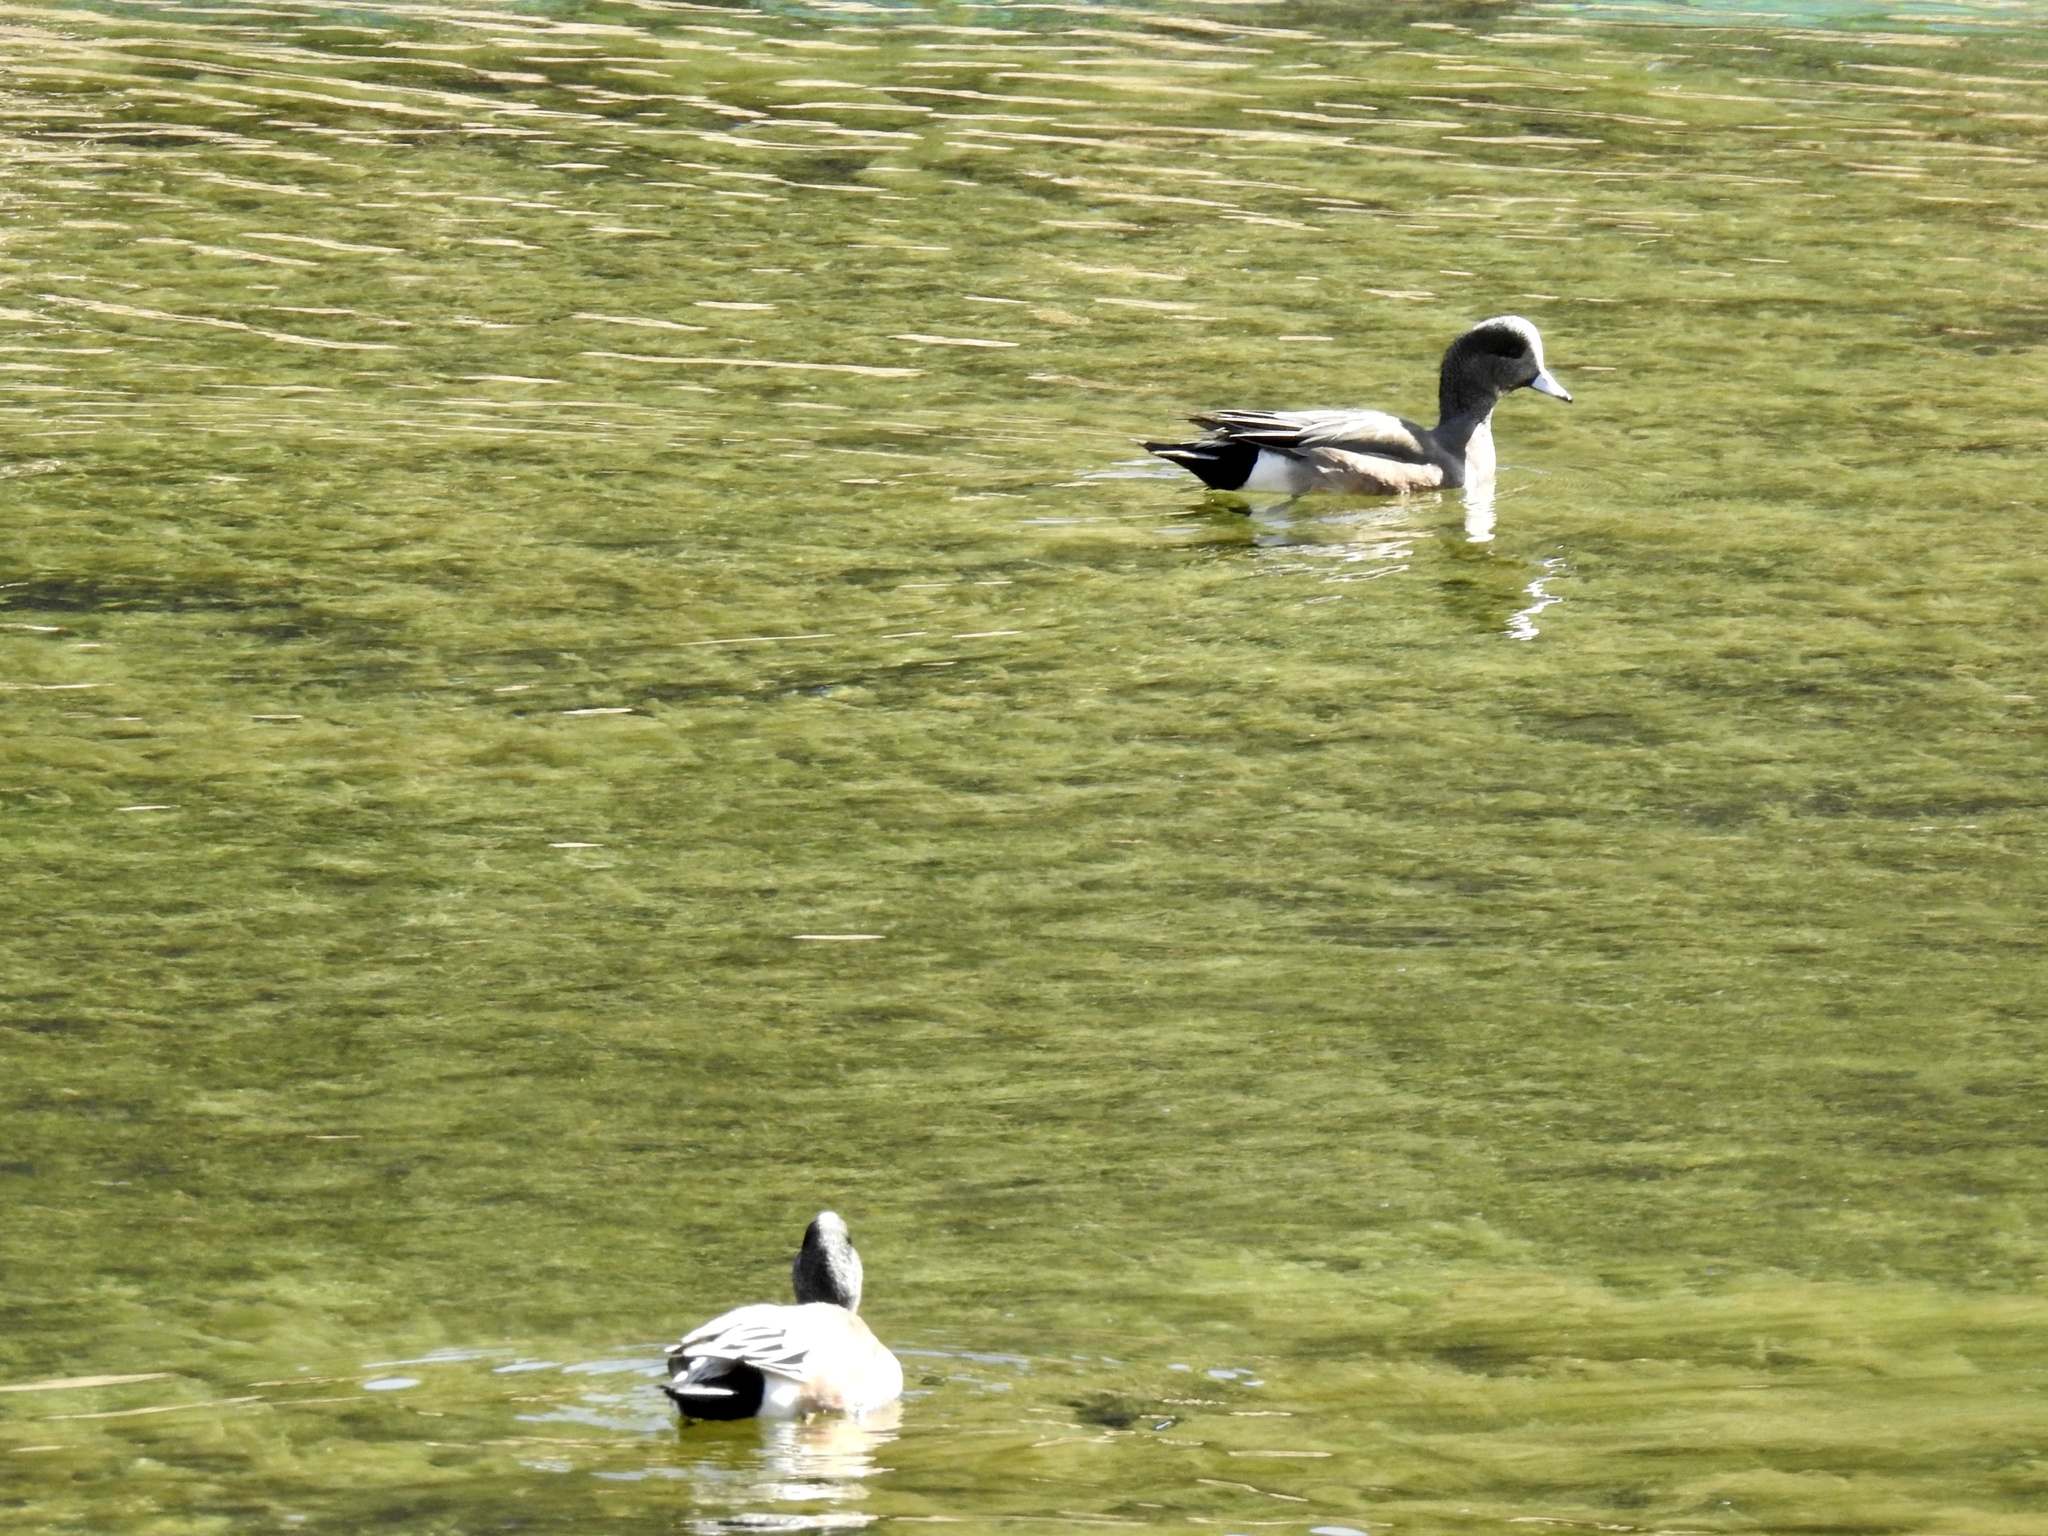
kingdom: Animalia
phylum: Chordata
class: Aves
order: Anseriformes
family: Anatidae
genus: Mareca
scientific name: Mareca americana
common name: American wigeon
